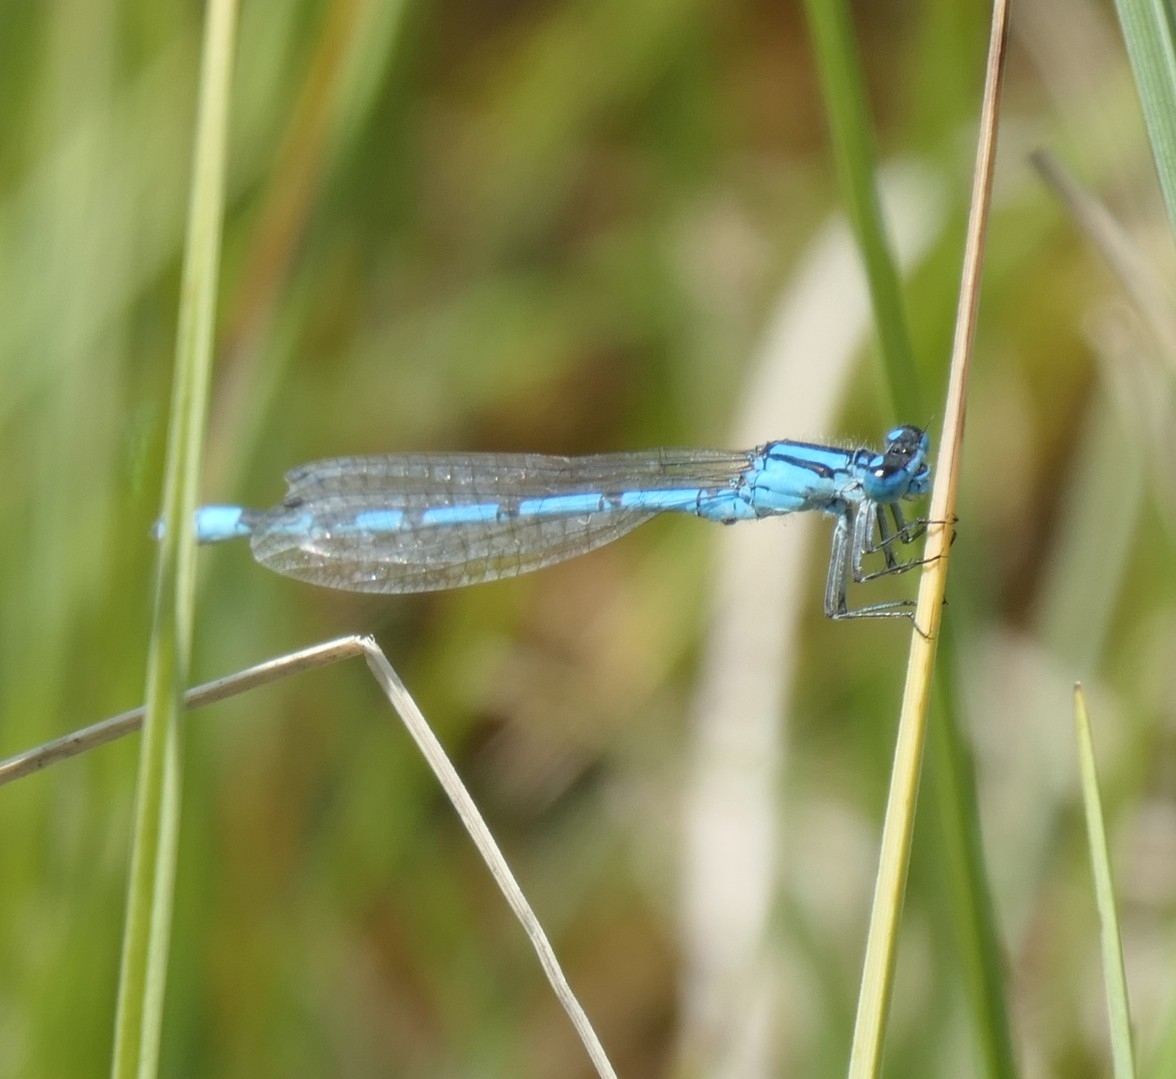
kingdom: Animalia
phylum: Arthropoda
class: Insecta
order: Odonata
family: Coenagrionidae
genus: Enallagma
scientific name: Enallagma cyathigerum
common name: Common blue damselfly
